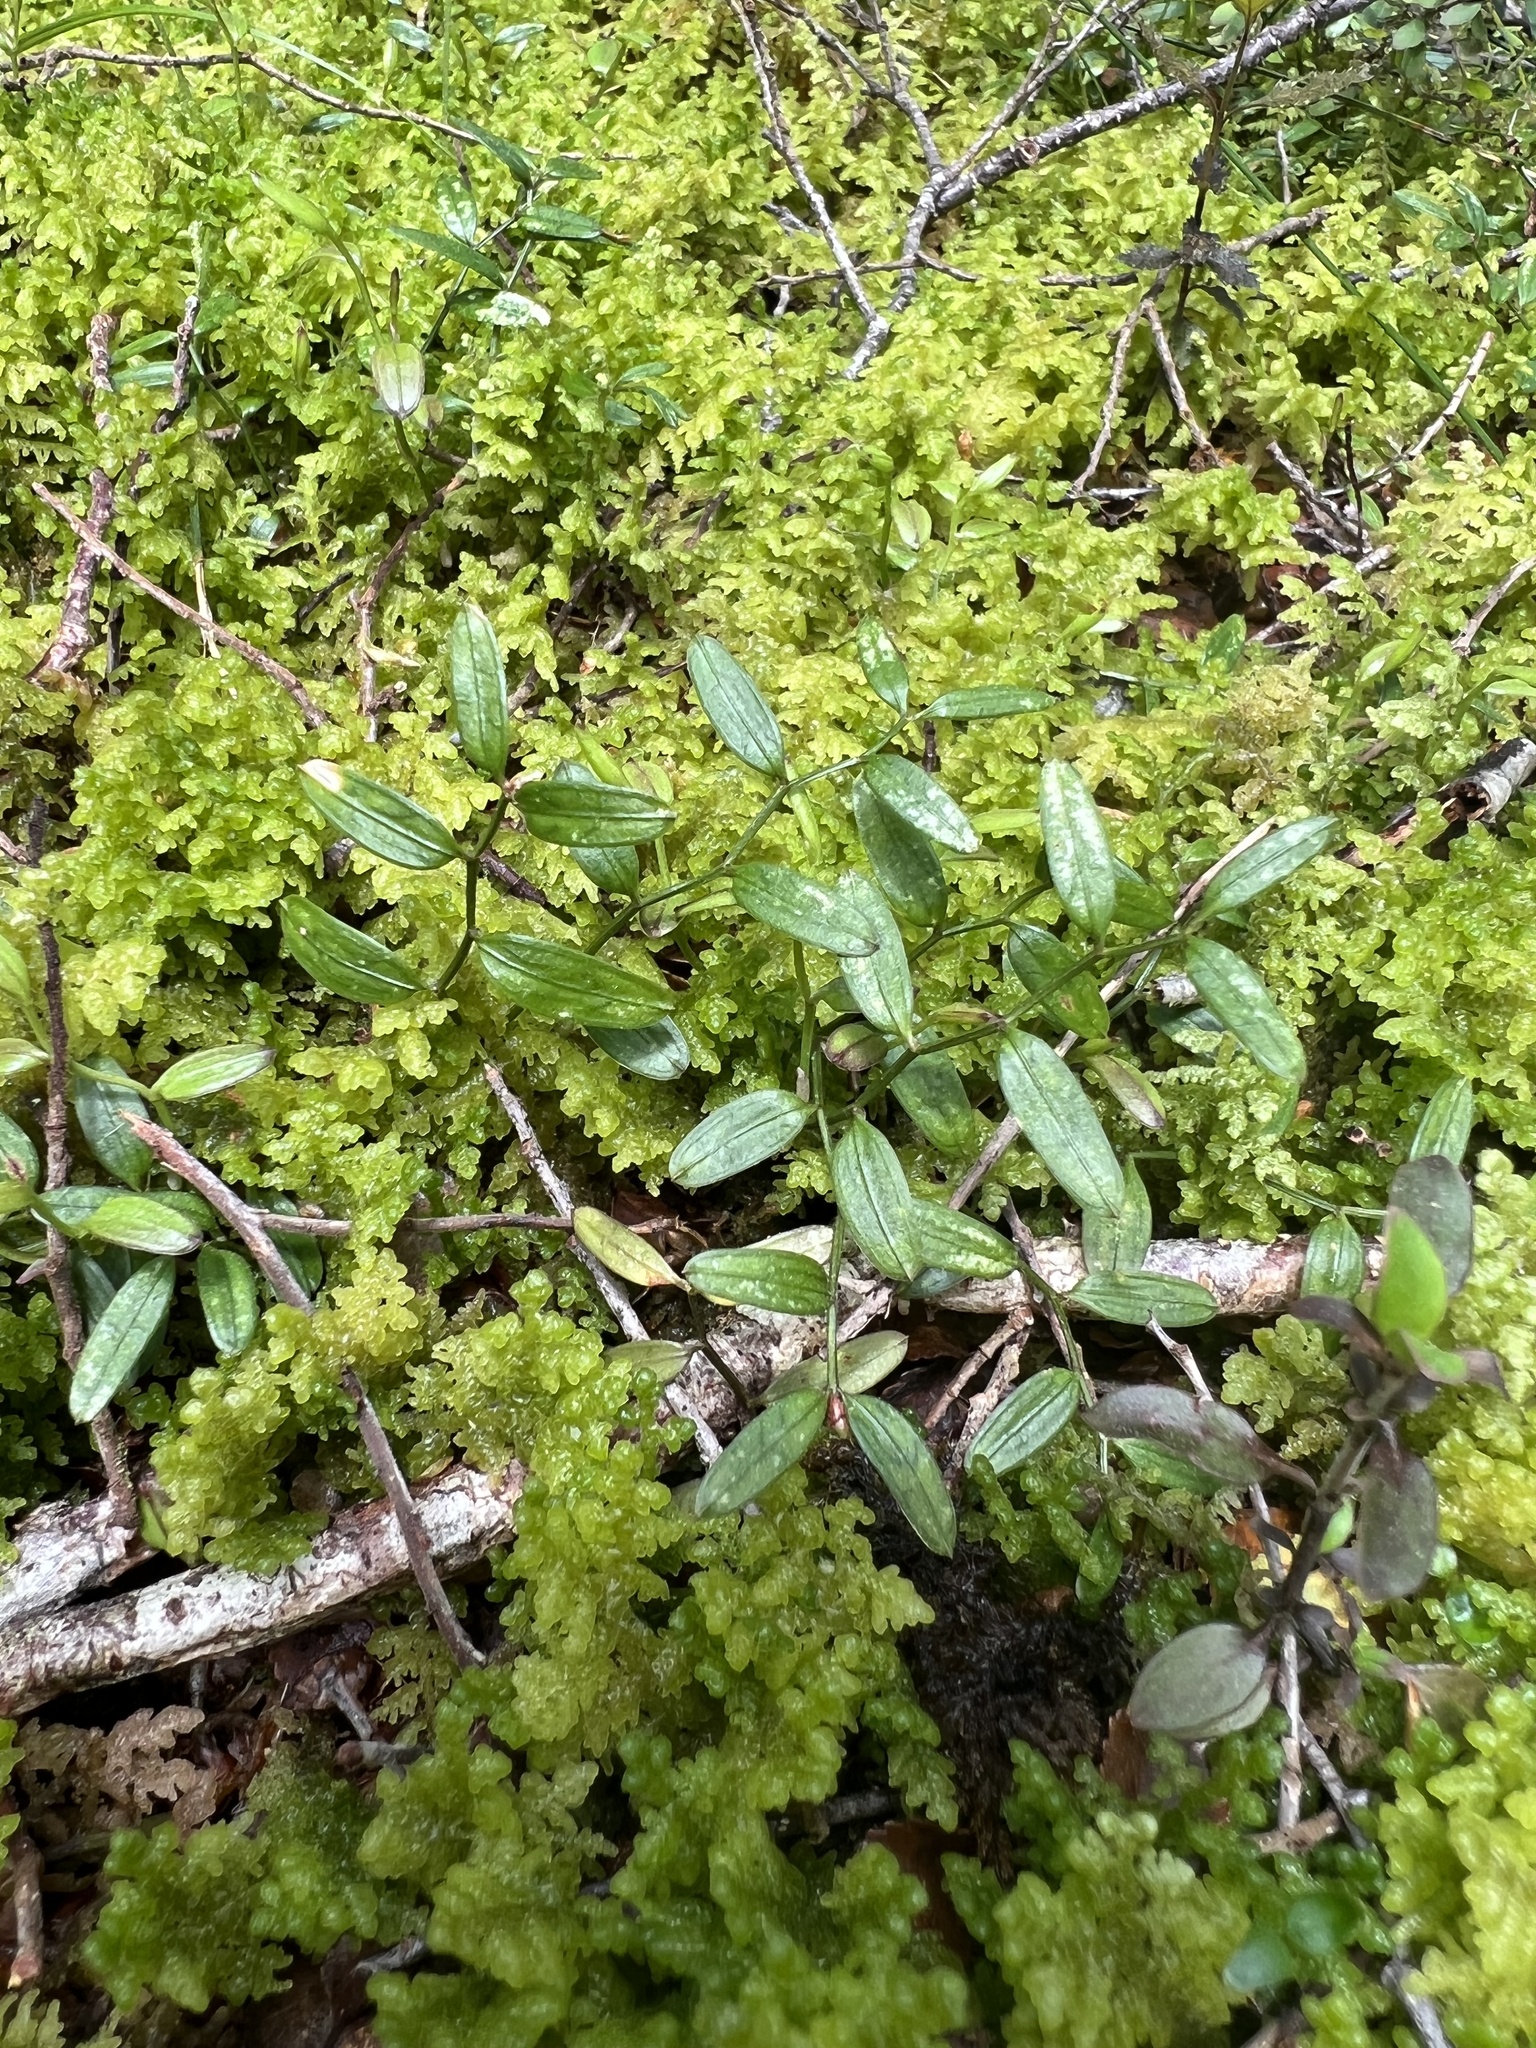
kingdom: Plantae
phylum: Tracheophyta
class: Liliopsida
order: Liliales
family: Alstroemeriaceae
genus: Luzuriaga
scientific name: Luzuriaga parviflora
